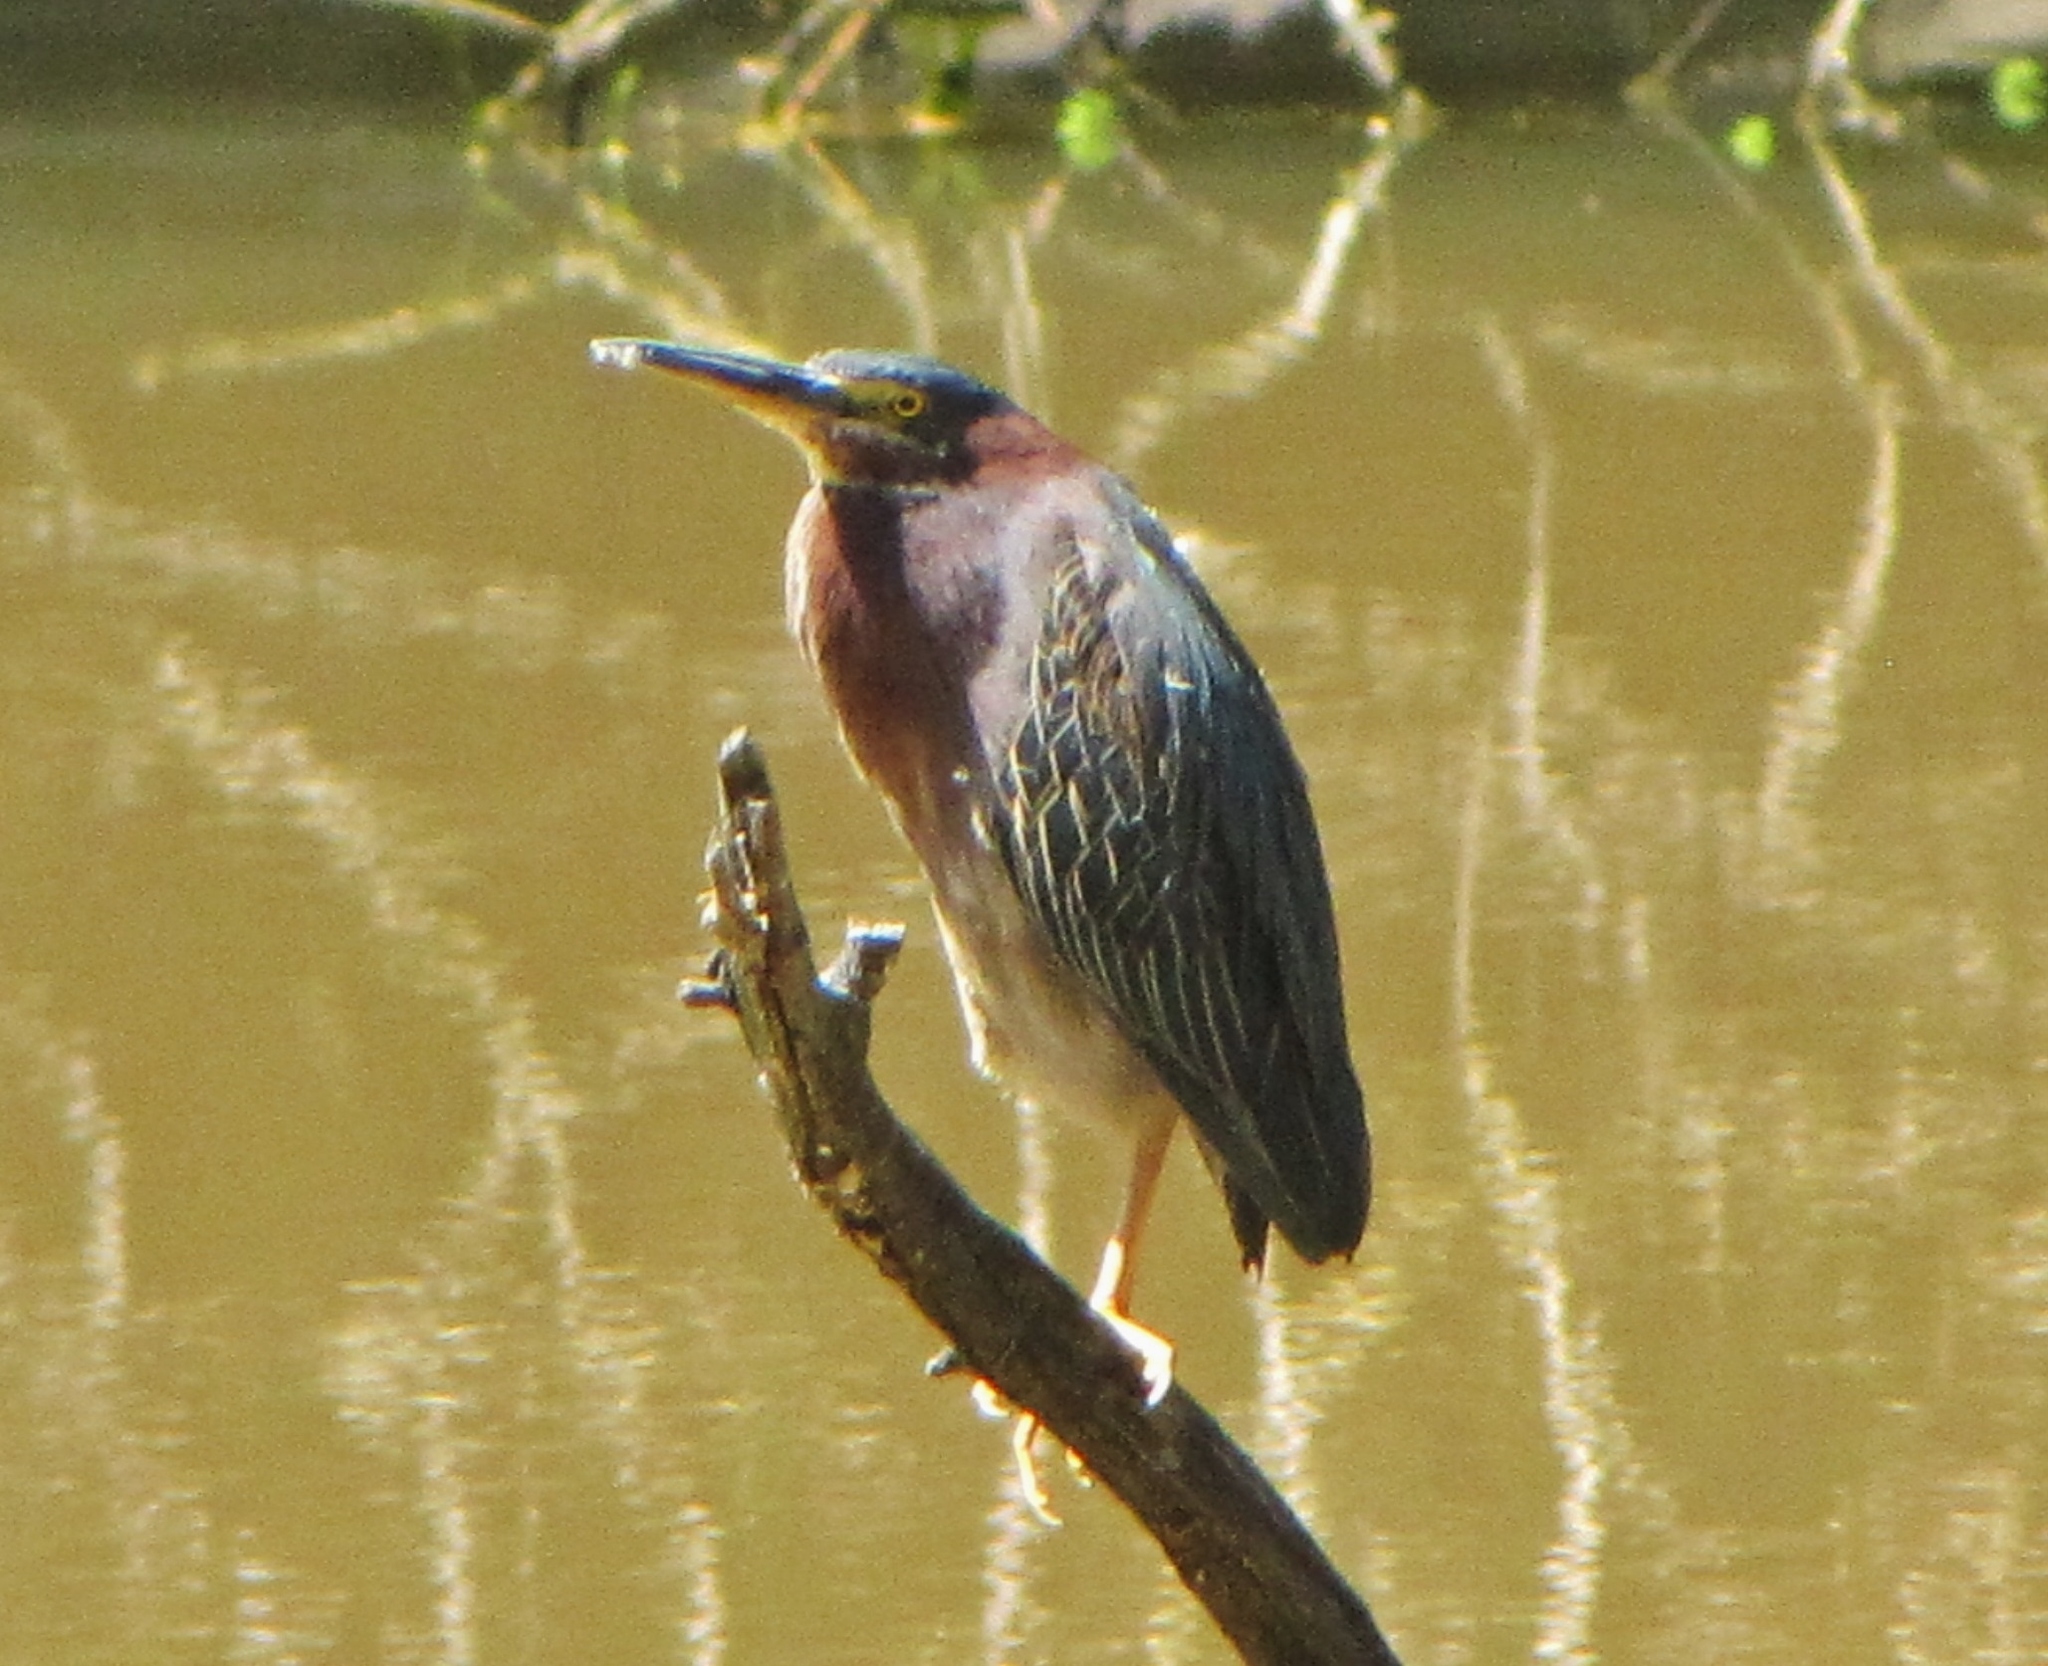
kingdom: Animalia
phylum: Chordata
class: Aves
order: Pelecaniformes
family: Ardeidae
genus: Butorides
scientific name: Butorides virescens
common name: Green heron
